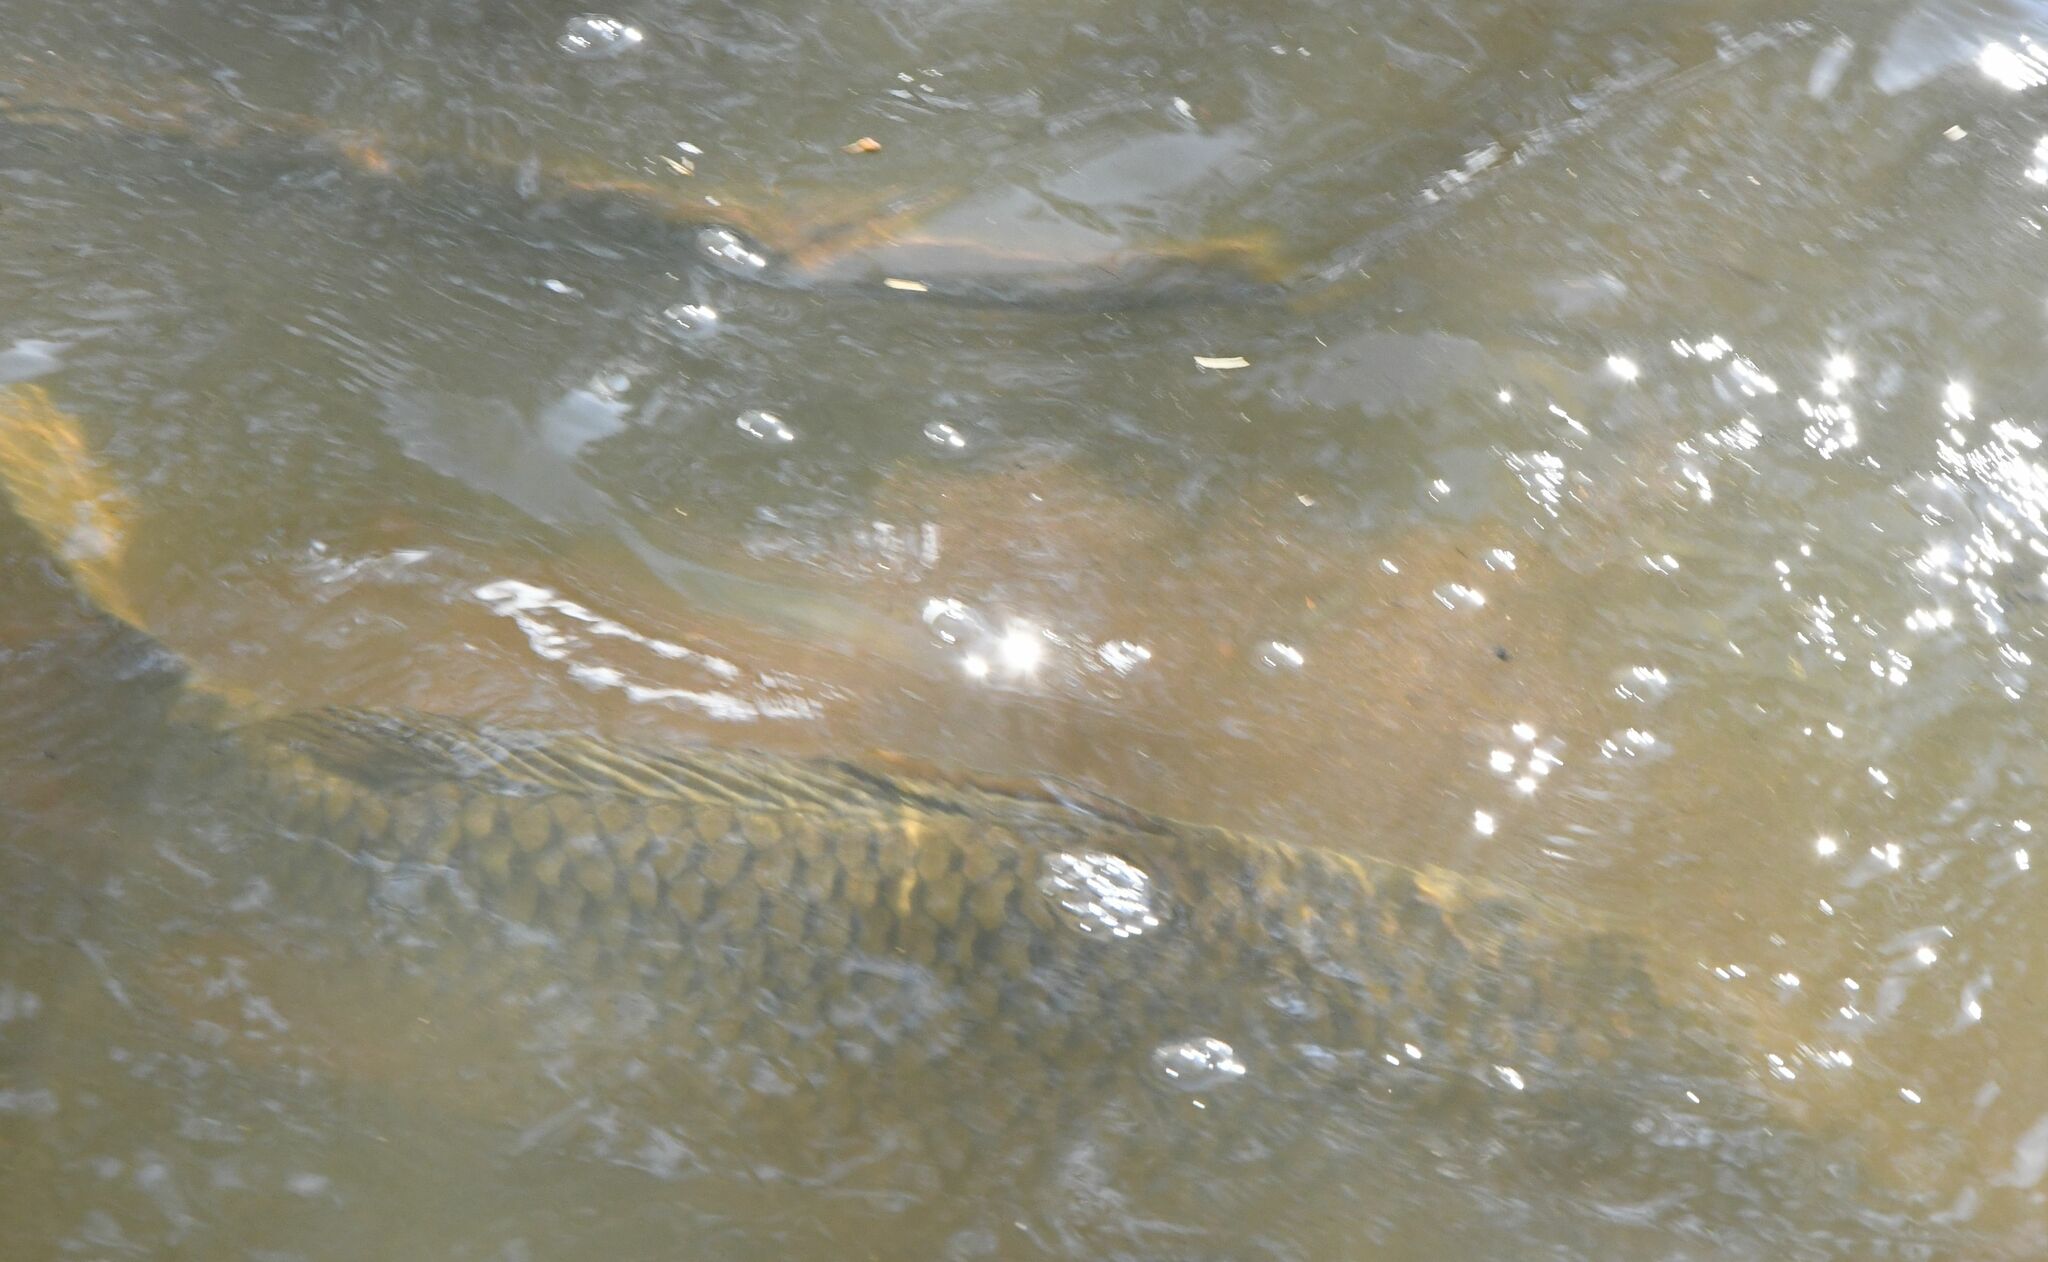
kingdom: Animalia
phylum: Chordata
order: Cypriniformes
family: Cyprinidae
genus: Cyprinus
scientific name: Cyprinus carpio
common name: Common carp
